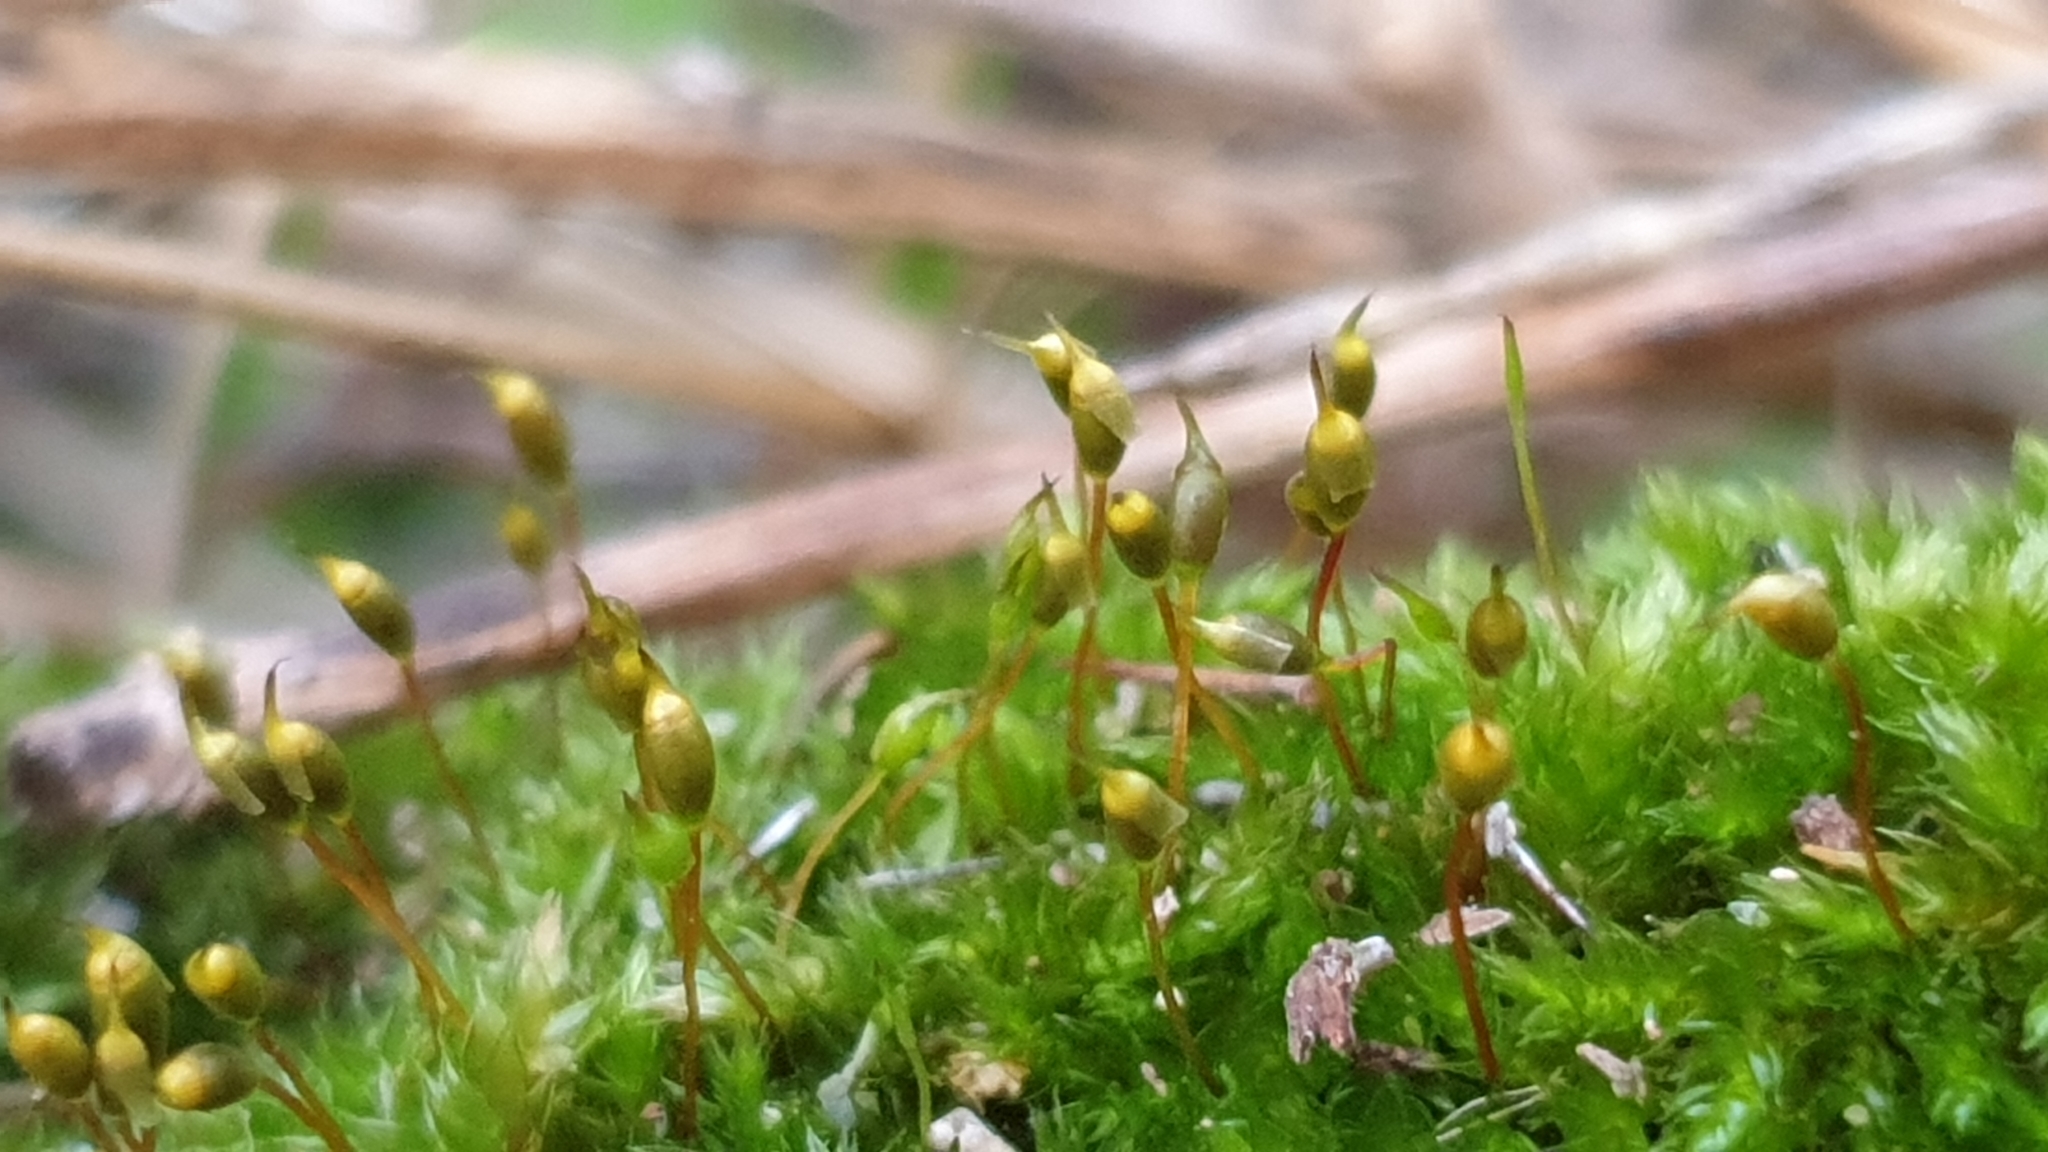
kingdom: Plantae
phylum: Bryophyta
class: Bryopsida
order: Hypnales
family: Sematophyllaceae
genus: Sematophyllum
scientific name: Sematophyllum homomallum
